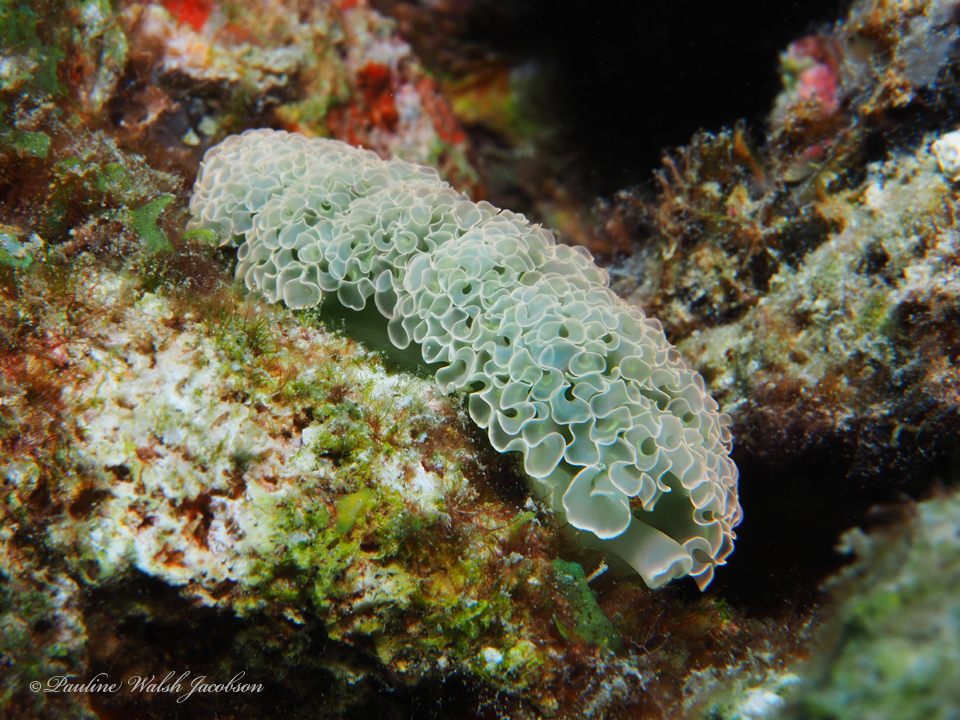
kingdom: Animalia
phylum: Mollusca
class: Gastropoda
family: Plakobranchidae
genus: Elysia
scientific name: Elysia crispata
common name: Lettuce slug
